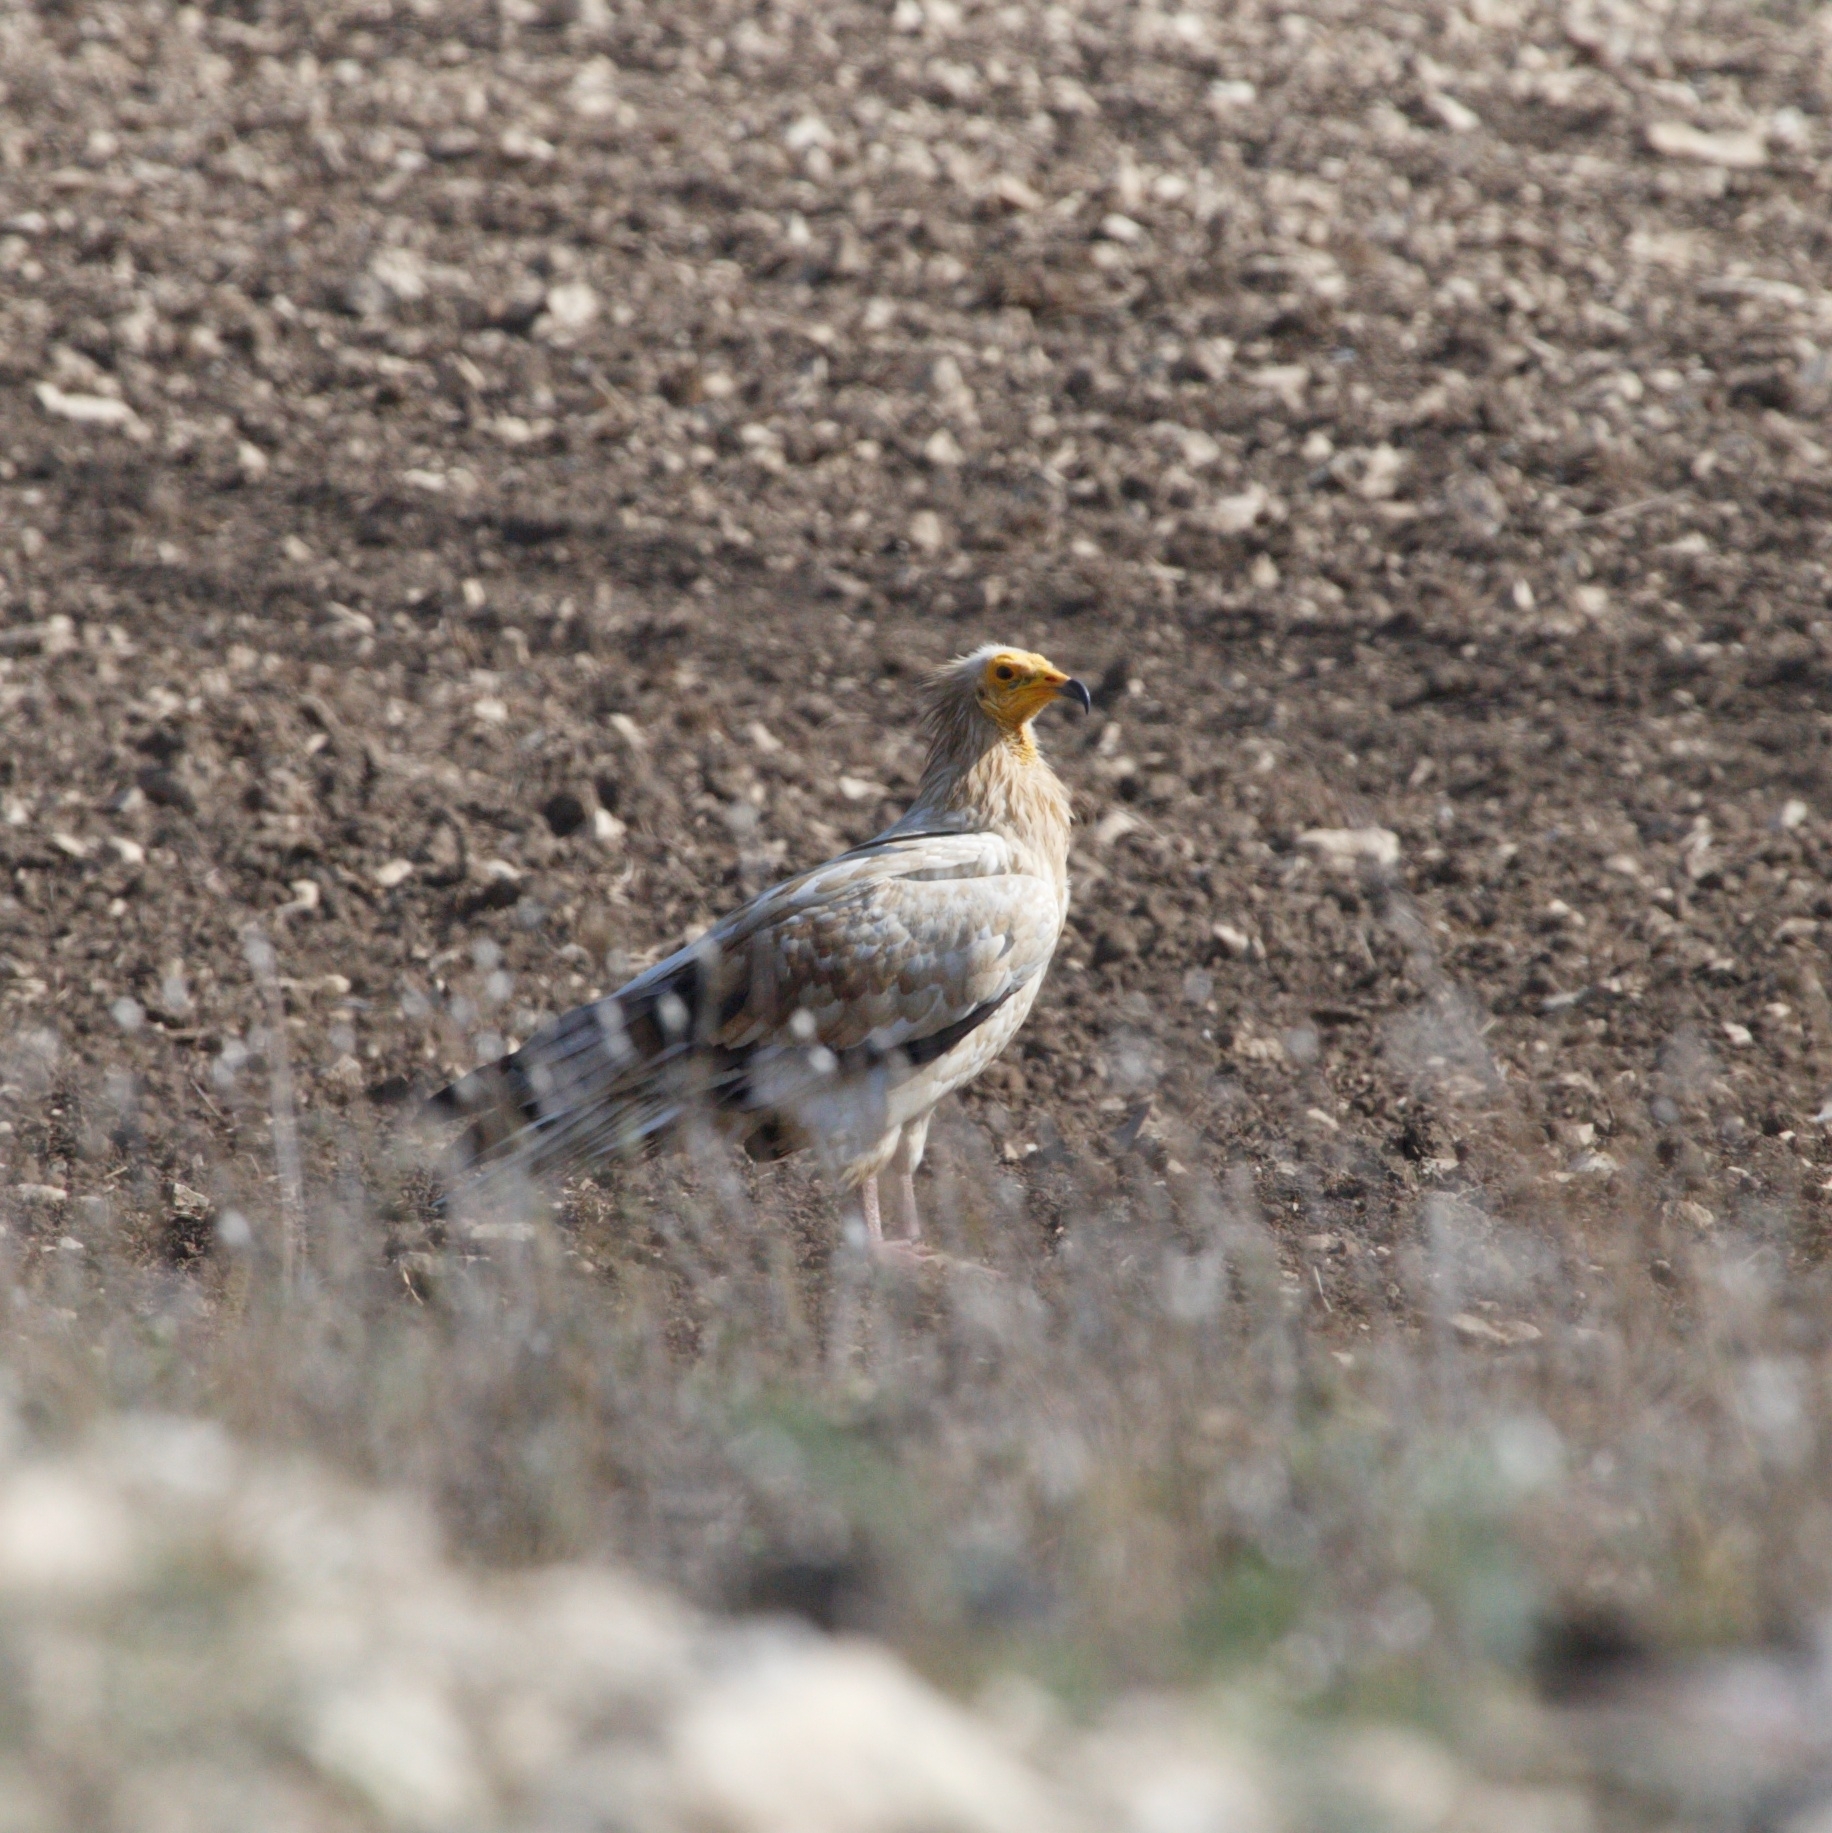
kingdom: Animalia
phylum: Chordata
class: Aves
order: Accipitriformes
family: Accipitridae
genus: Neophron
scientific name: Neophron percnopterus
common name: Egyptian vulture
